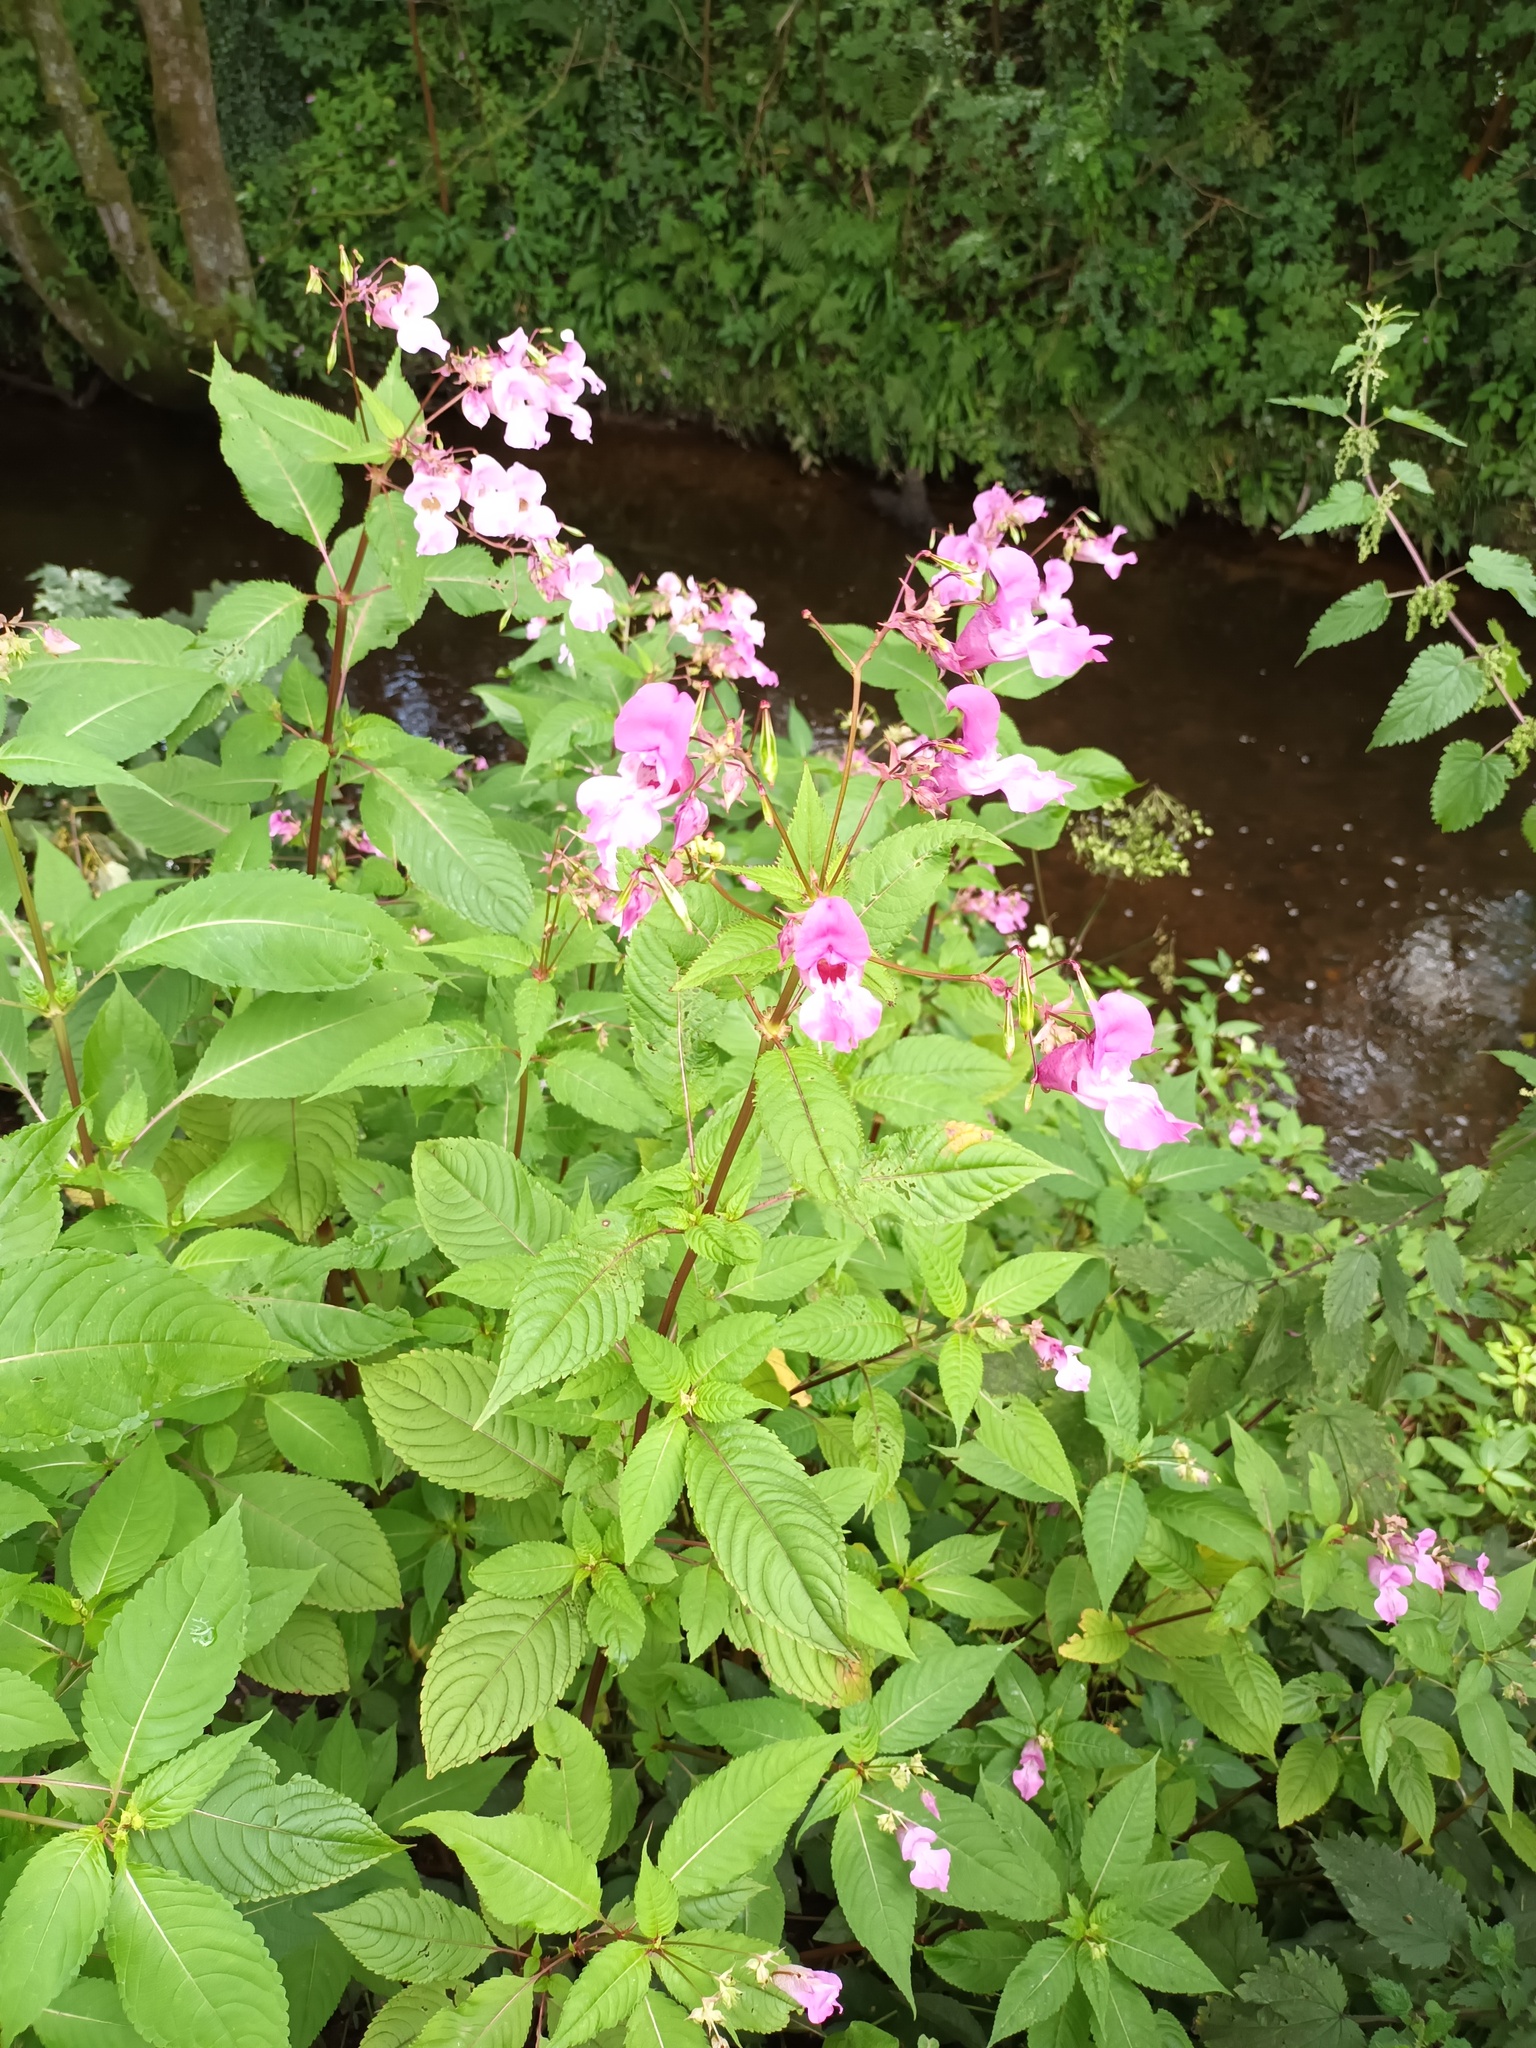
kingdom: Plantae
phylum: Tracheophyta
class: Magnoliopsida
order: Ericales
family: Balsaminaceae
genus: Impatiens
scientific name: Impatiens glandulifera
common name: Himalayan balsam
